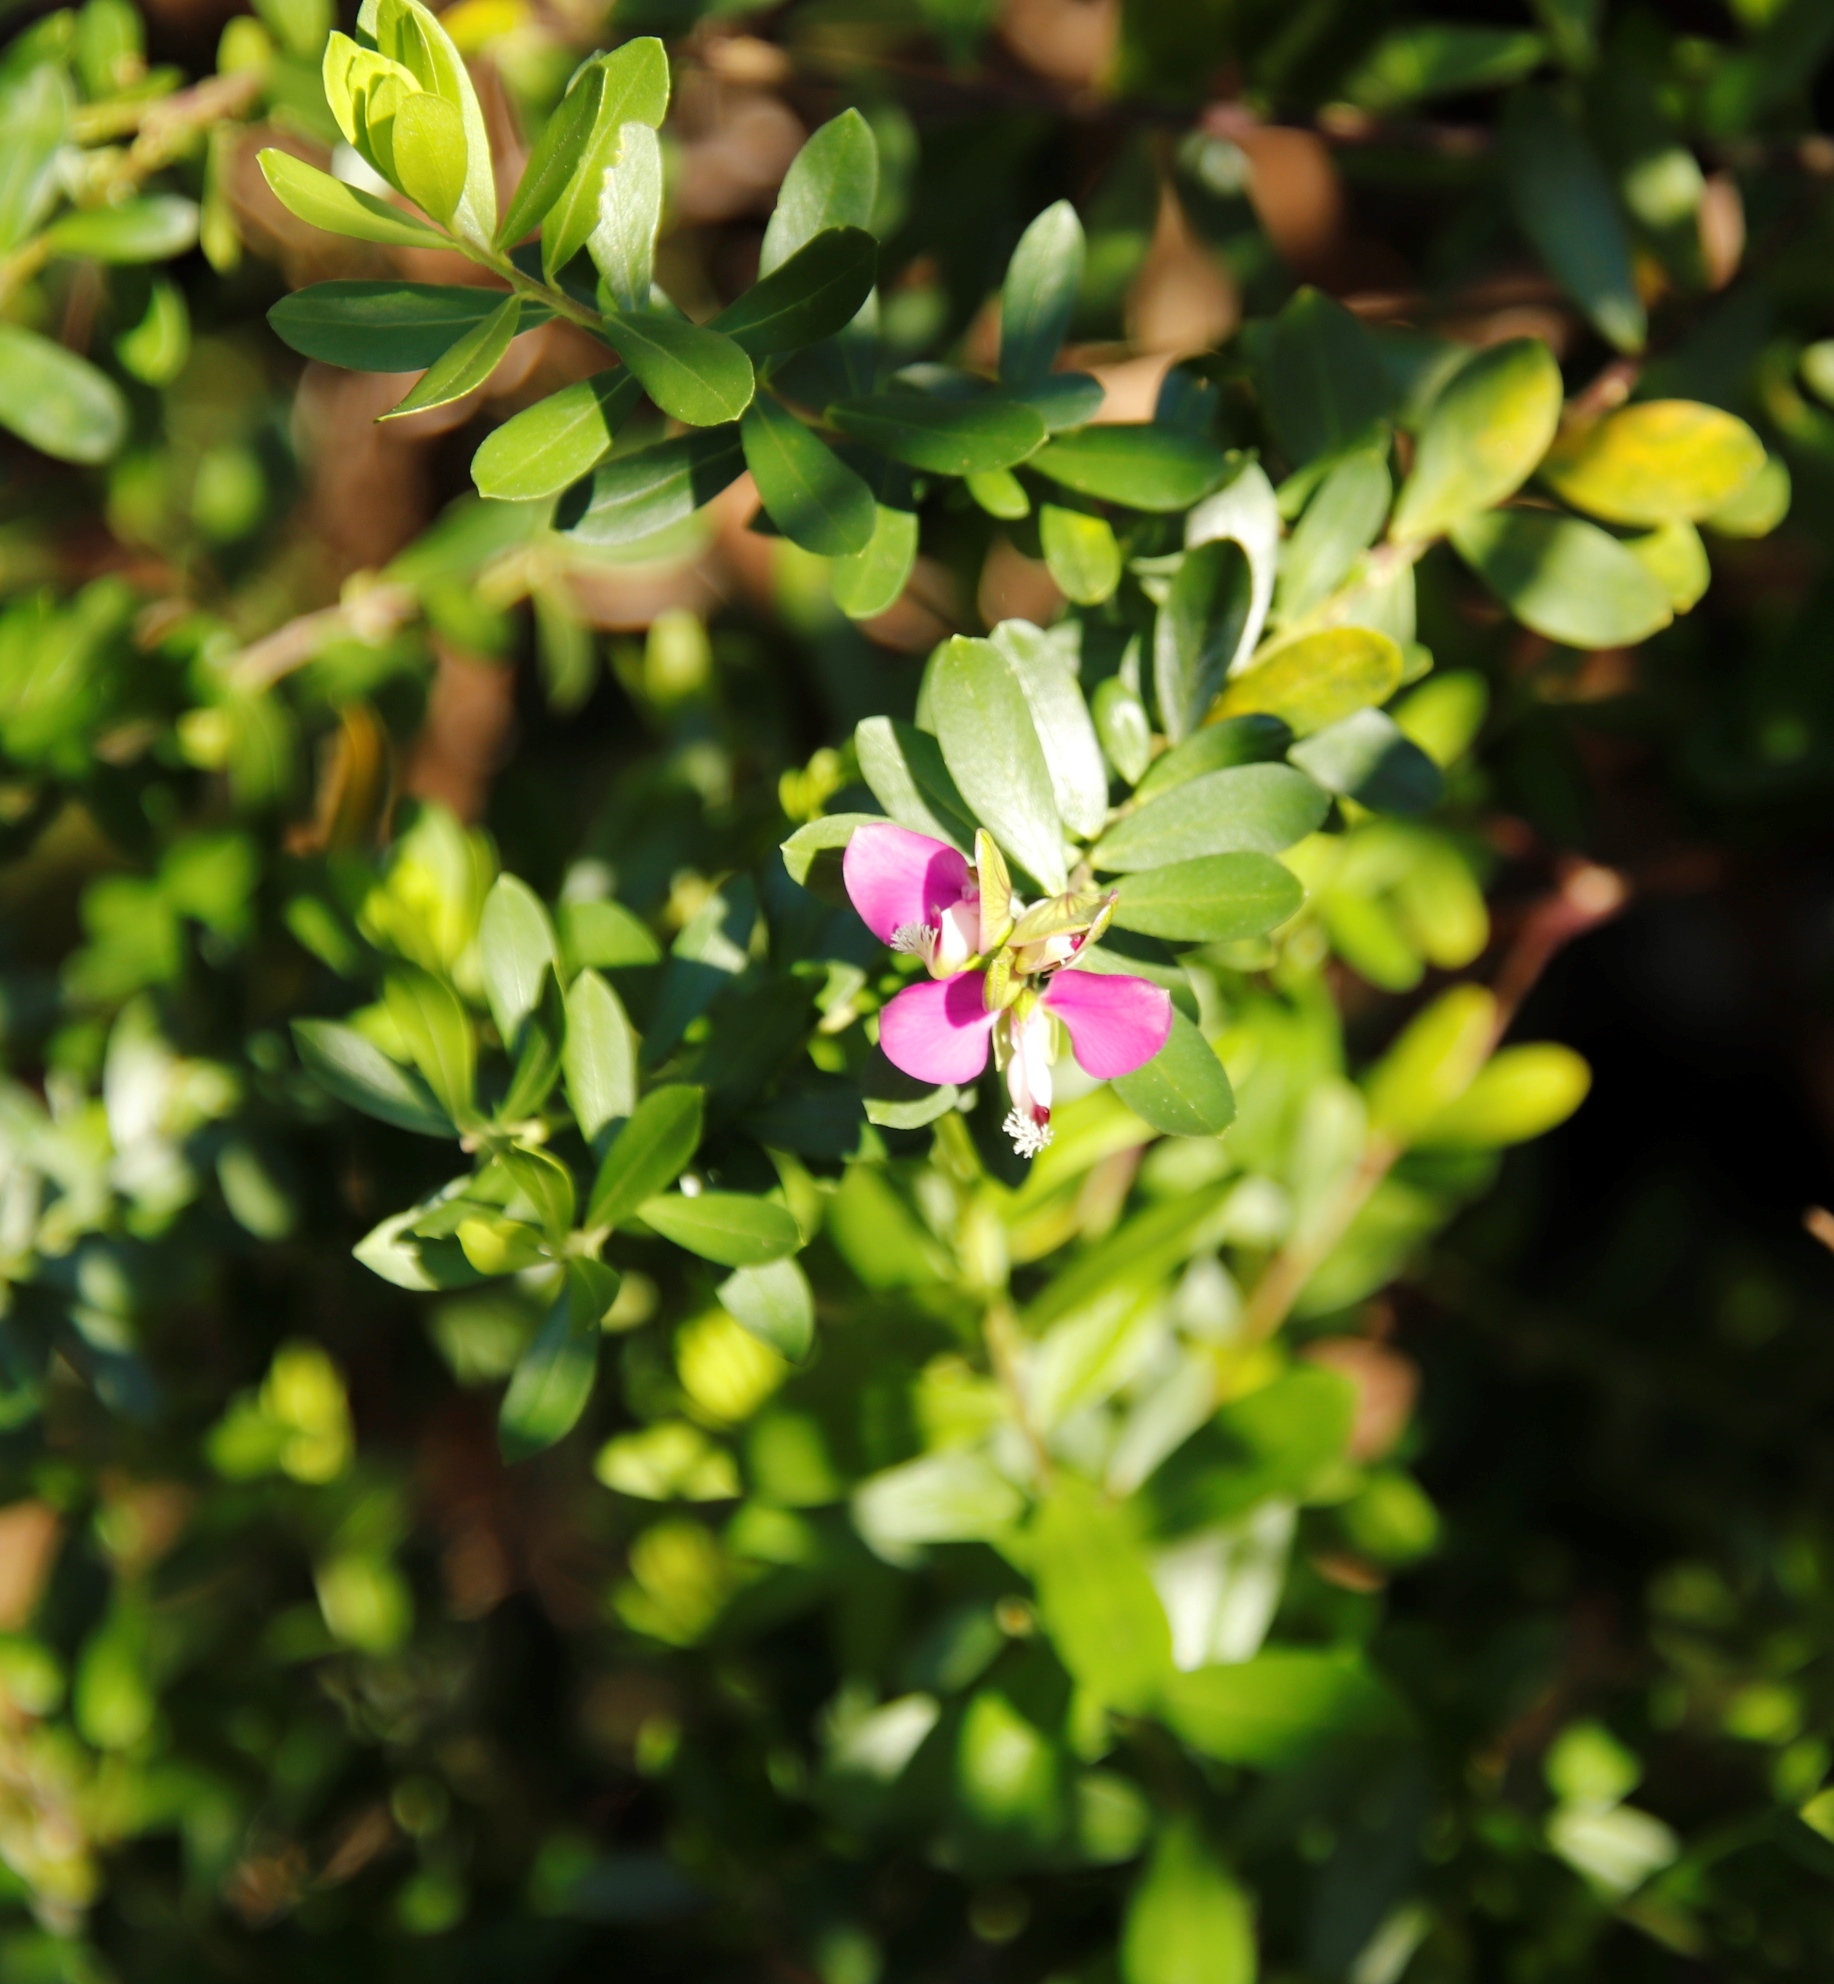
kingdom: Plantae
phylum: Tracheophyta
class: Magnoliopsida
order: Fabales
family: Polygalaceae
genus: Polygala
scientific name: Polygala myrtifolia
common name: Myrtle-leaf milkwort
